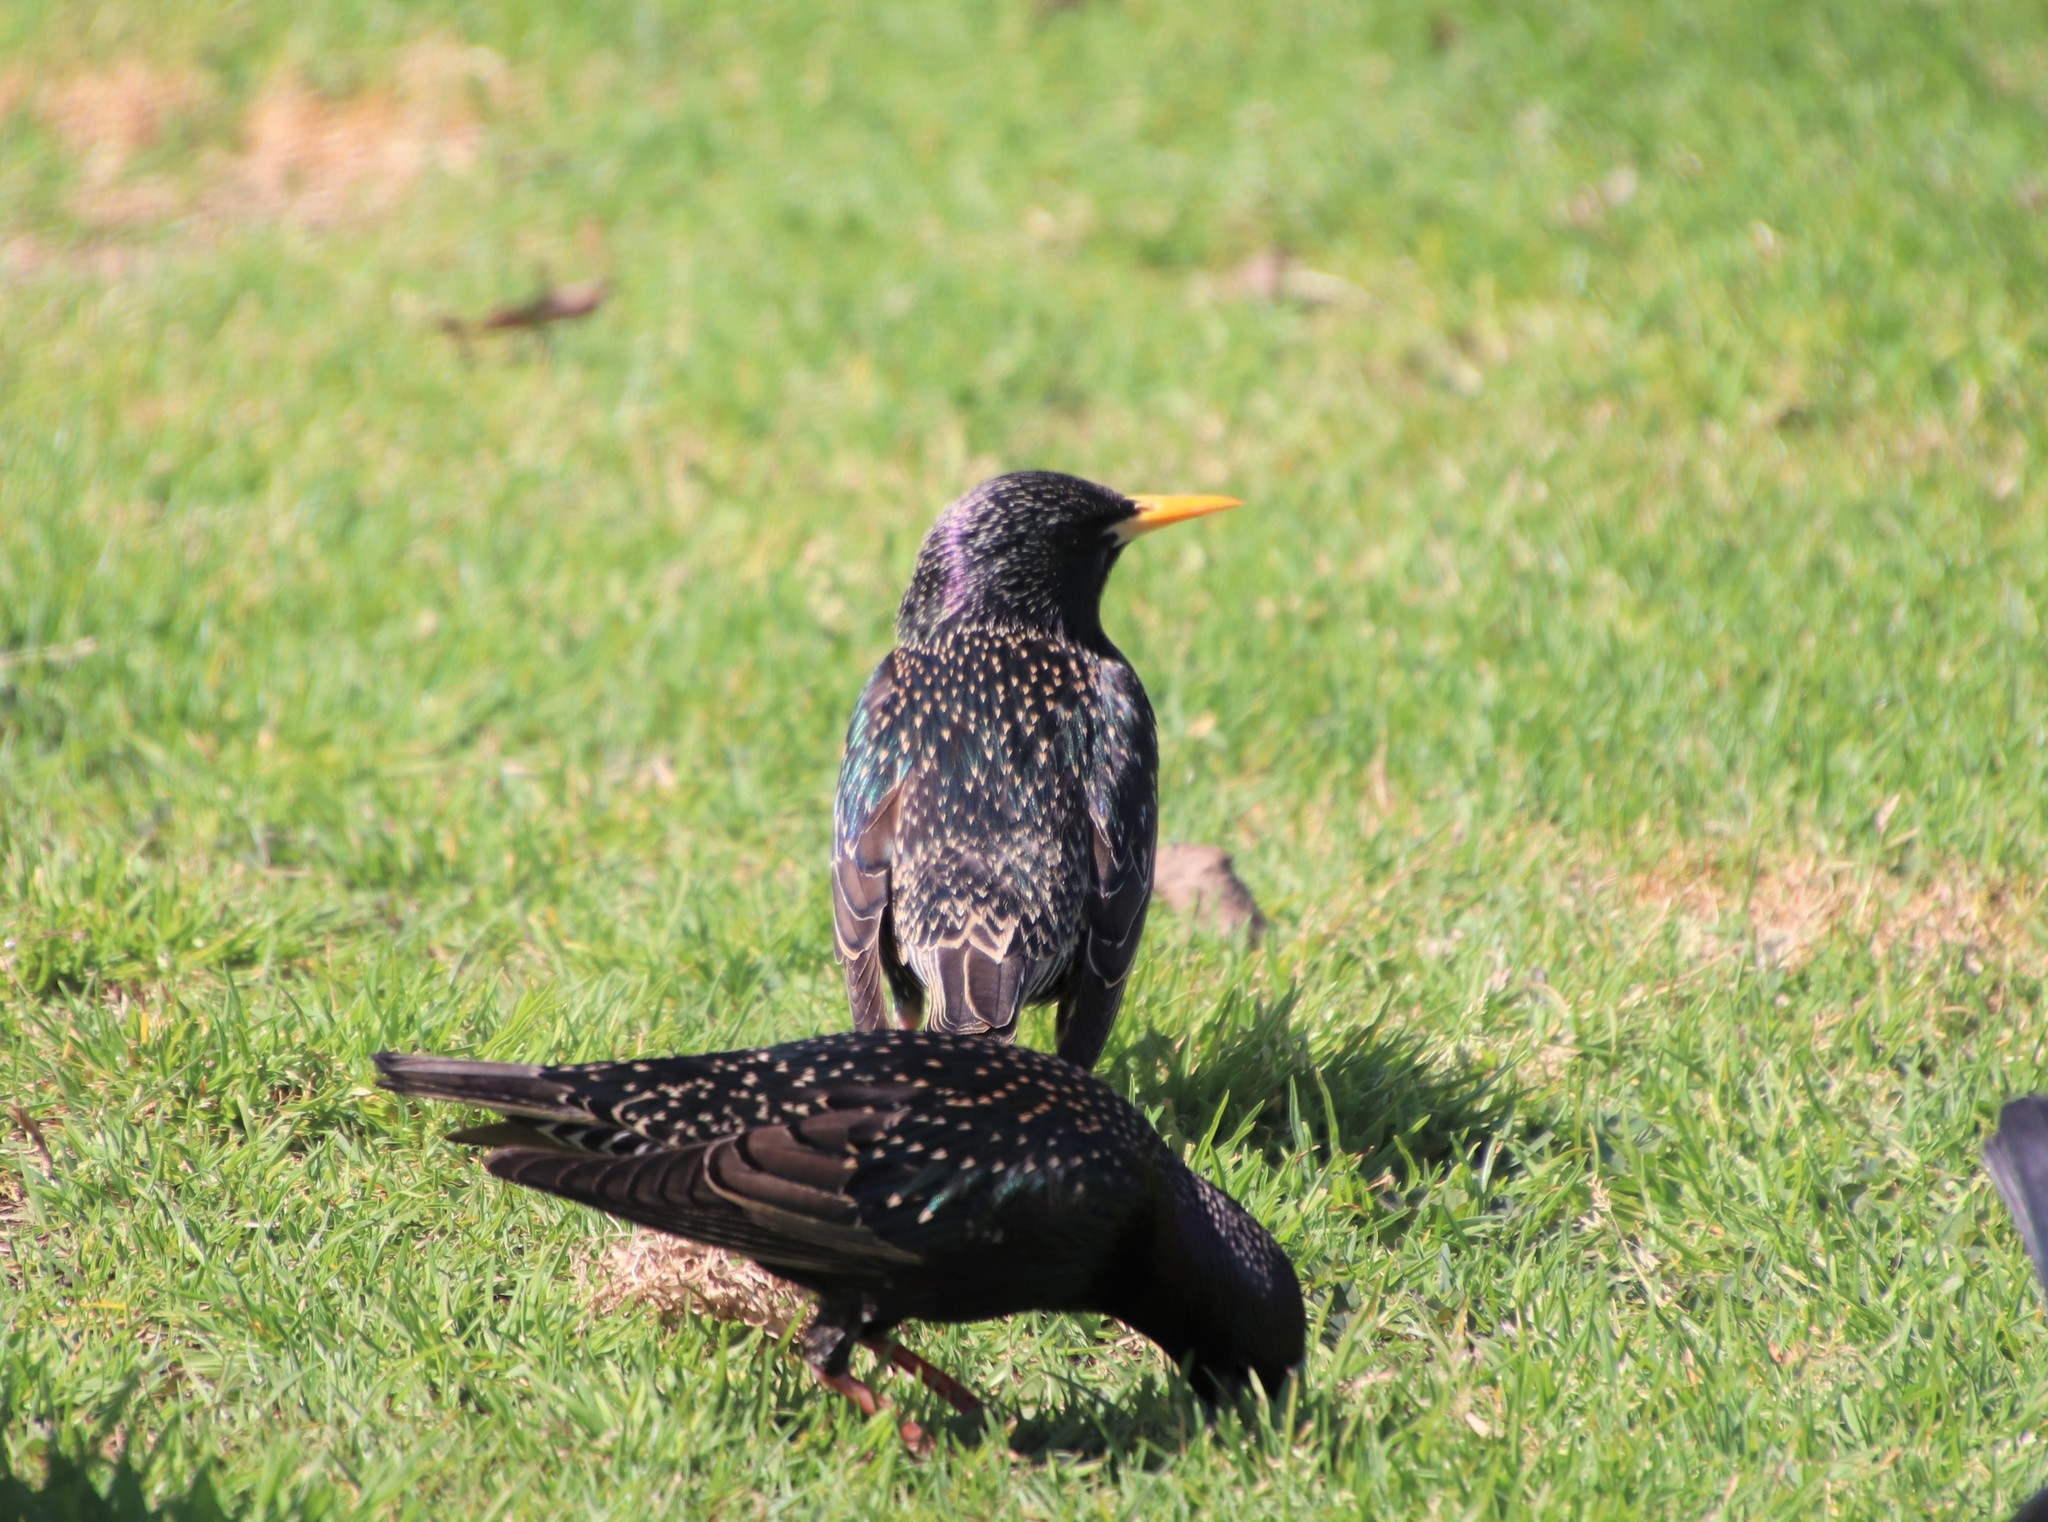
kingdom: Animalia
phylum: Chordata
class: Aves
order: Passeriformes
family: Sturnidae
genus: Sturnus
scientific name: Sturnus vulgaris
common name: Common starling
